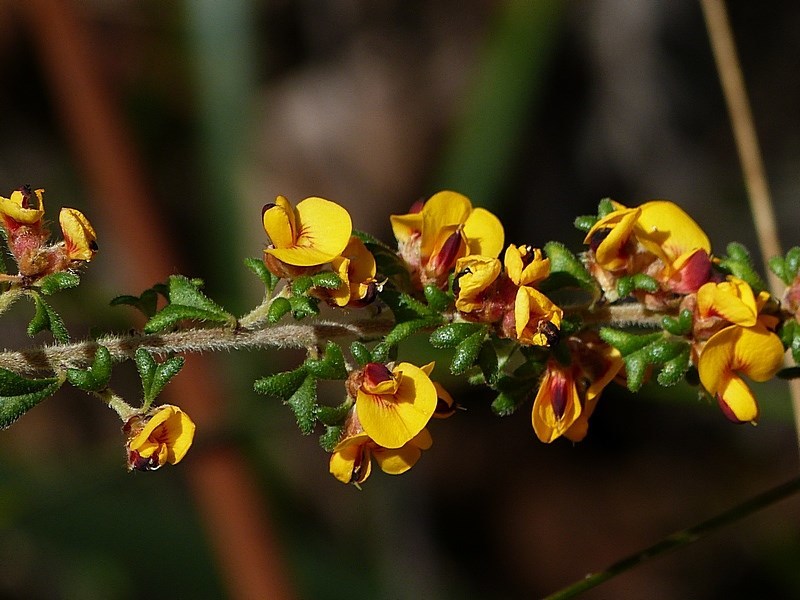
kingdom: Plantae
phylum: Tracheophyta
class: Magnoliopsida
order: Fabales
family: Fabaceae
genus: Pultenaea
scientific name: Pultenaea scabra
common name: Rough bush-pea
